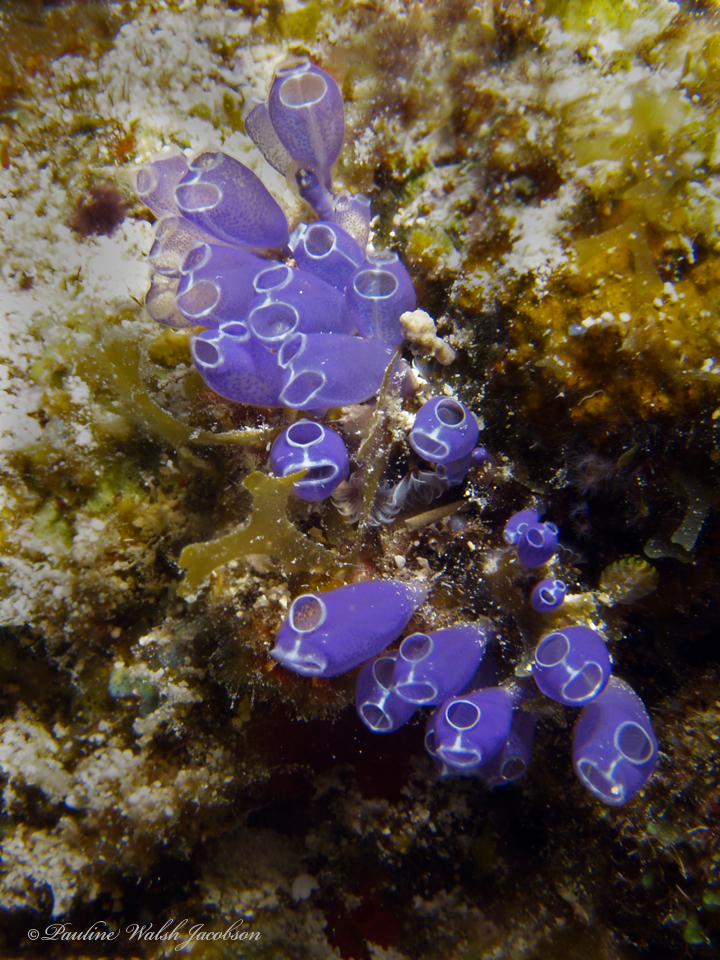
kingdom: Animalia
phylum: Chordata
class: Ascidiacea
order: Aplousobranchia
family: Clavelinidae
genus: Clavelina
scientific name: Clavelina puertosecensis
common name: Blue bell tunicate
